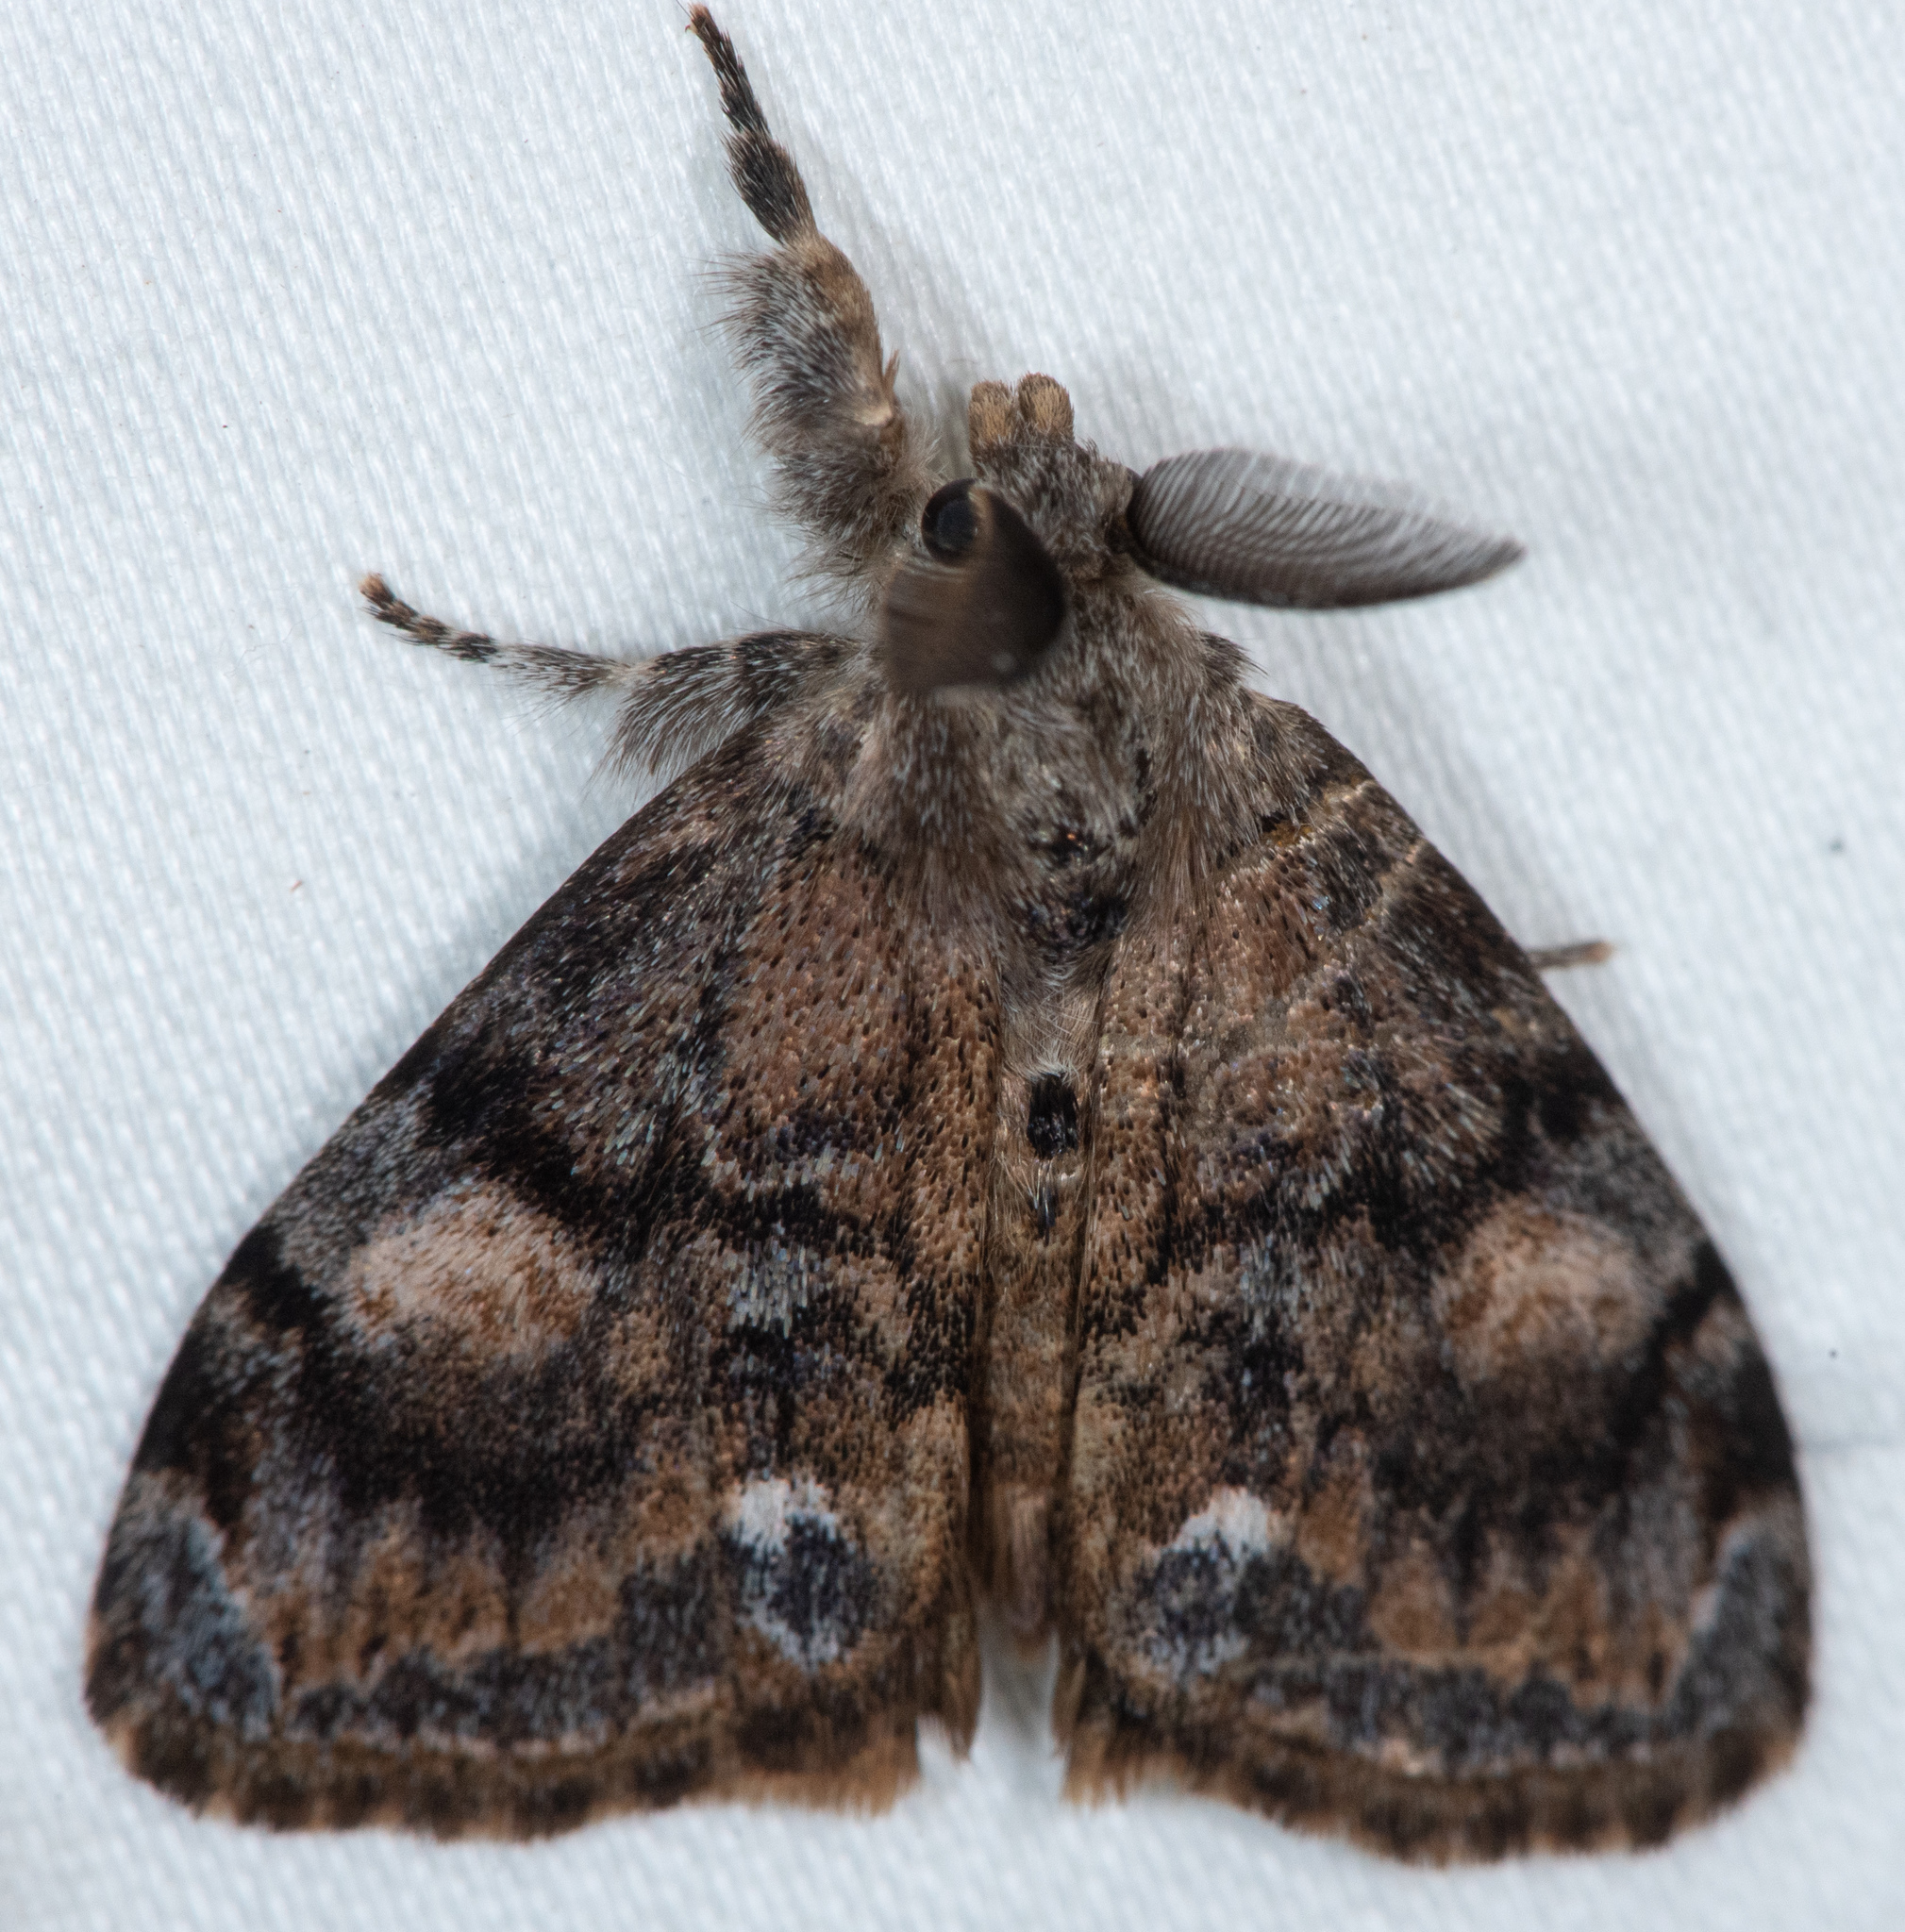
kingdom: Animalia
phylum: Arthropoda
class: Insecta
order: Lepidoptera
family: Erebidae
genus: Orgyia
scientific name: Orgyia vetusta
